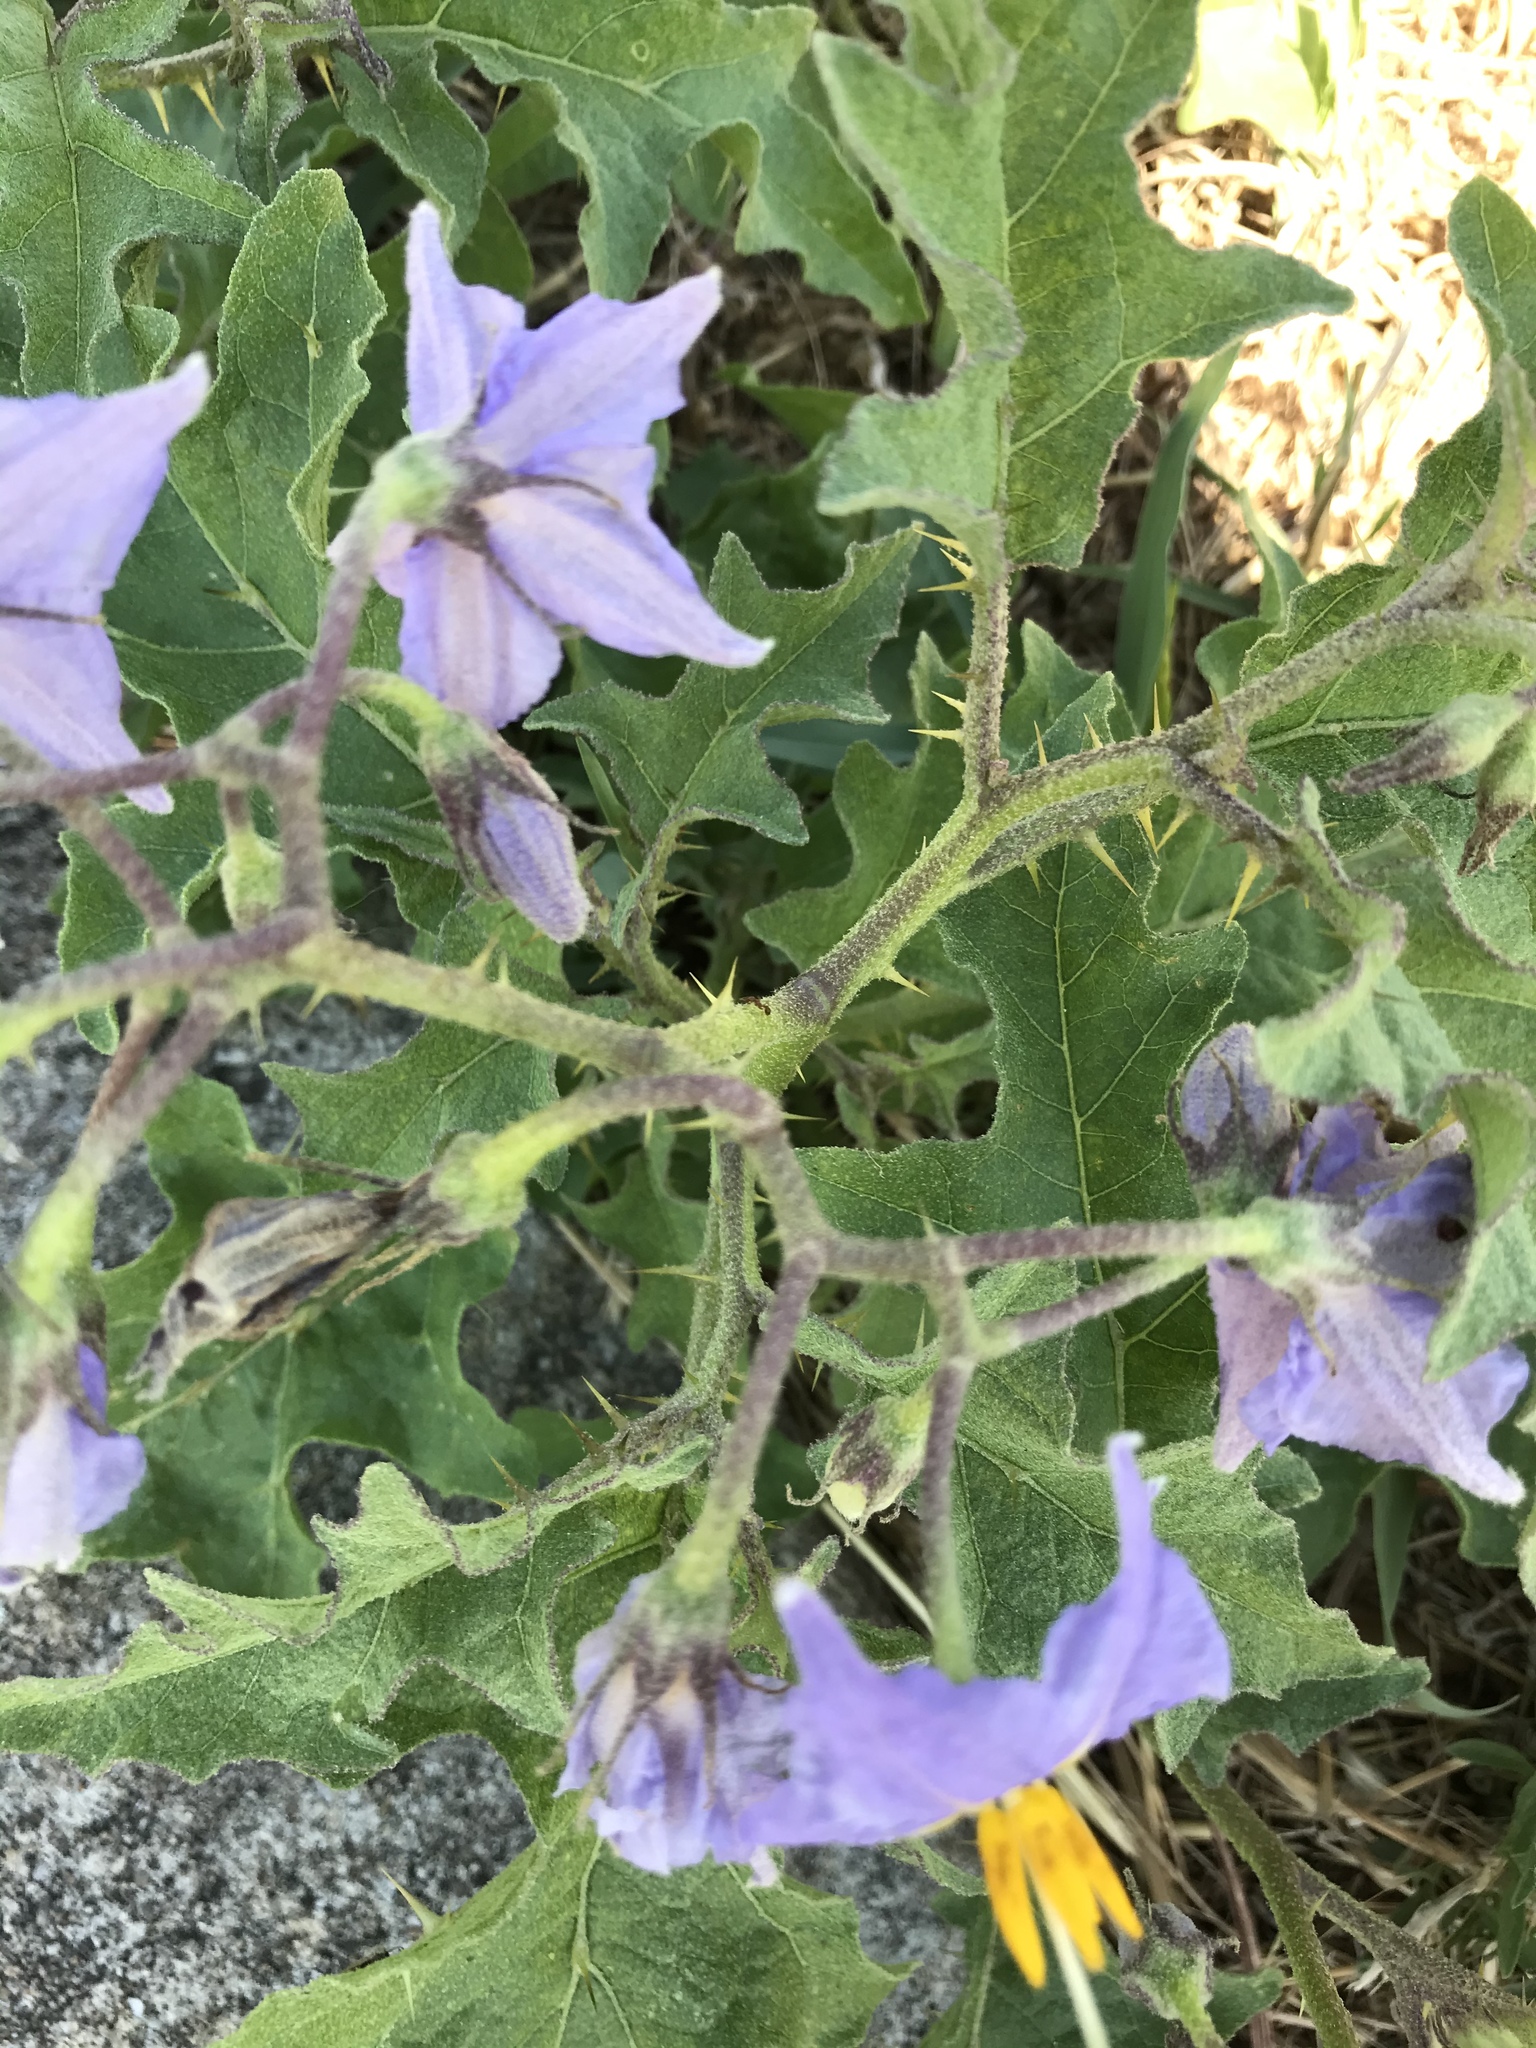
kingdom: Plantae
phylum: Tracheophyta
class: Magnoliopsida
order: Solanales
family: Solanaceae
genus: Solanum
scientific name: Solanum dimidiatum
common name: Carolina horse-nettle
